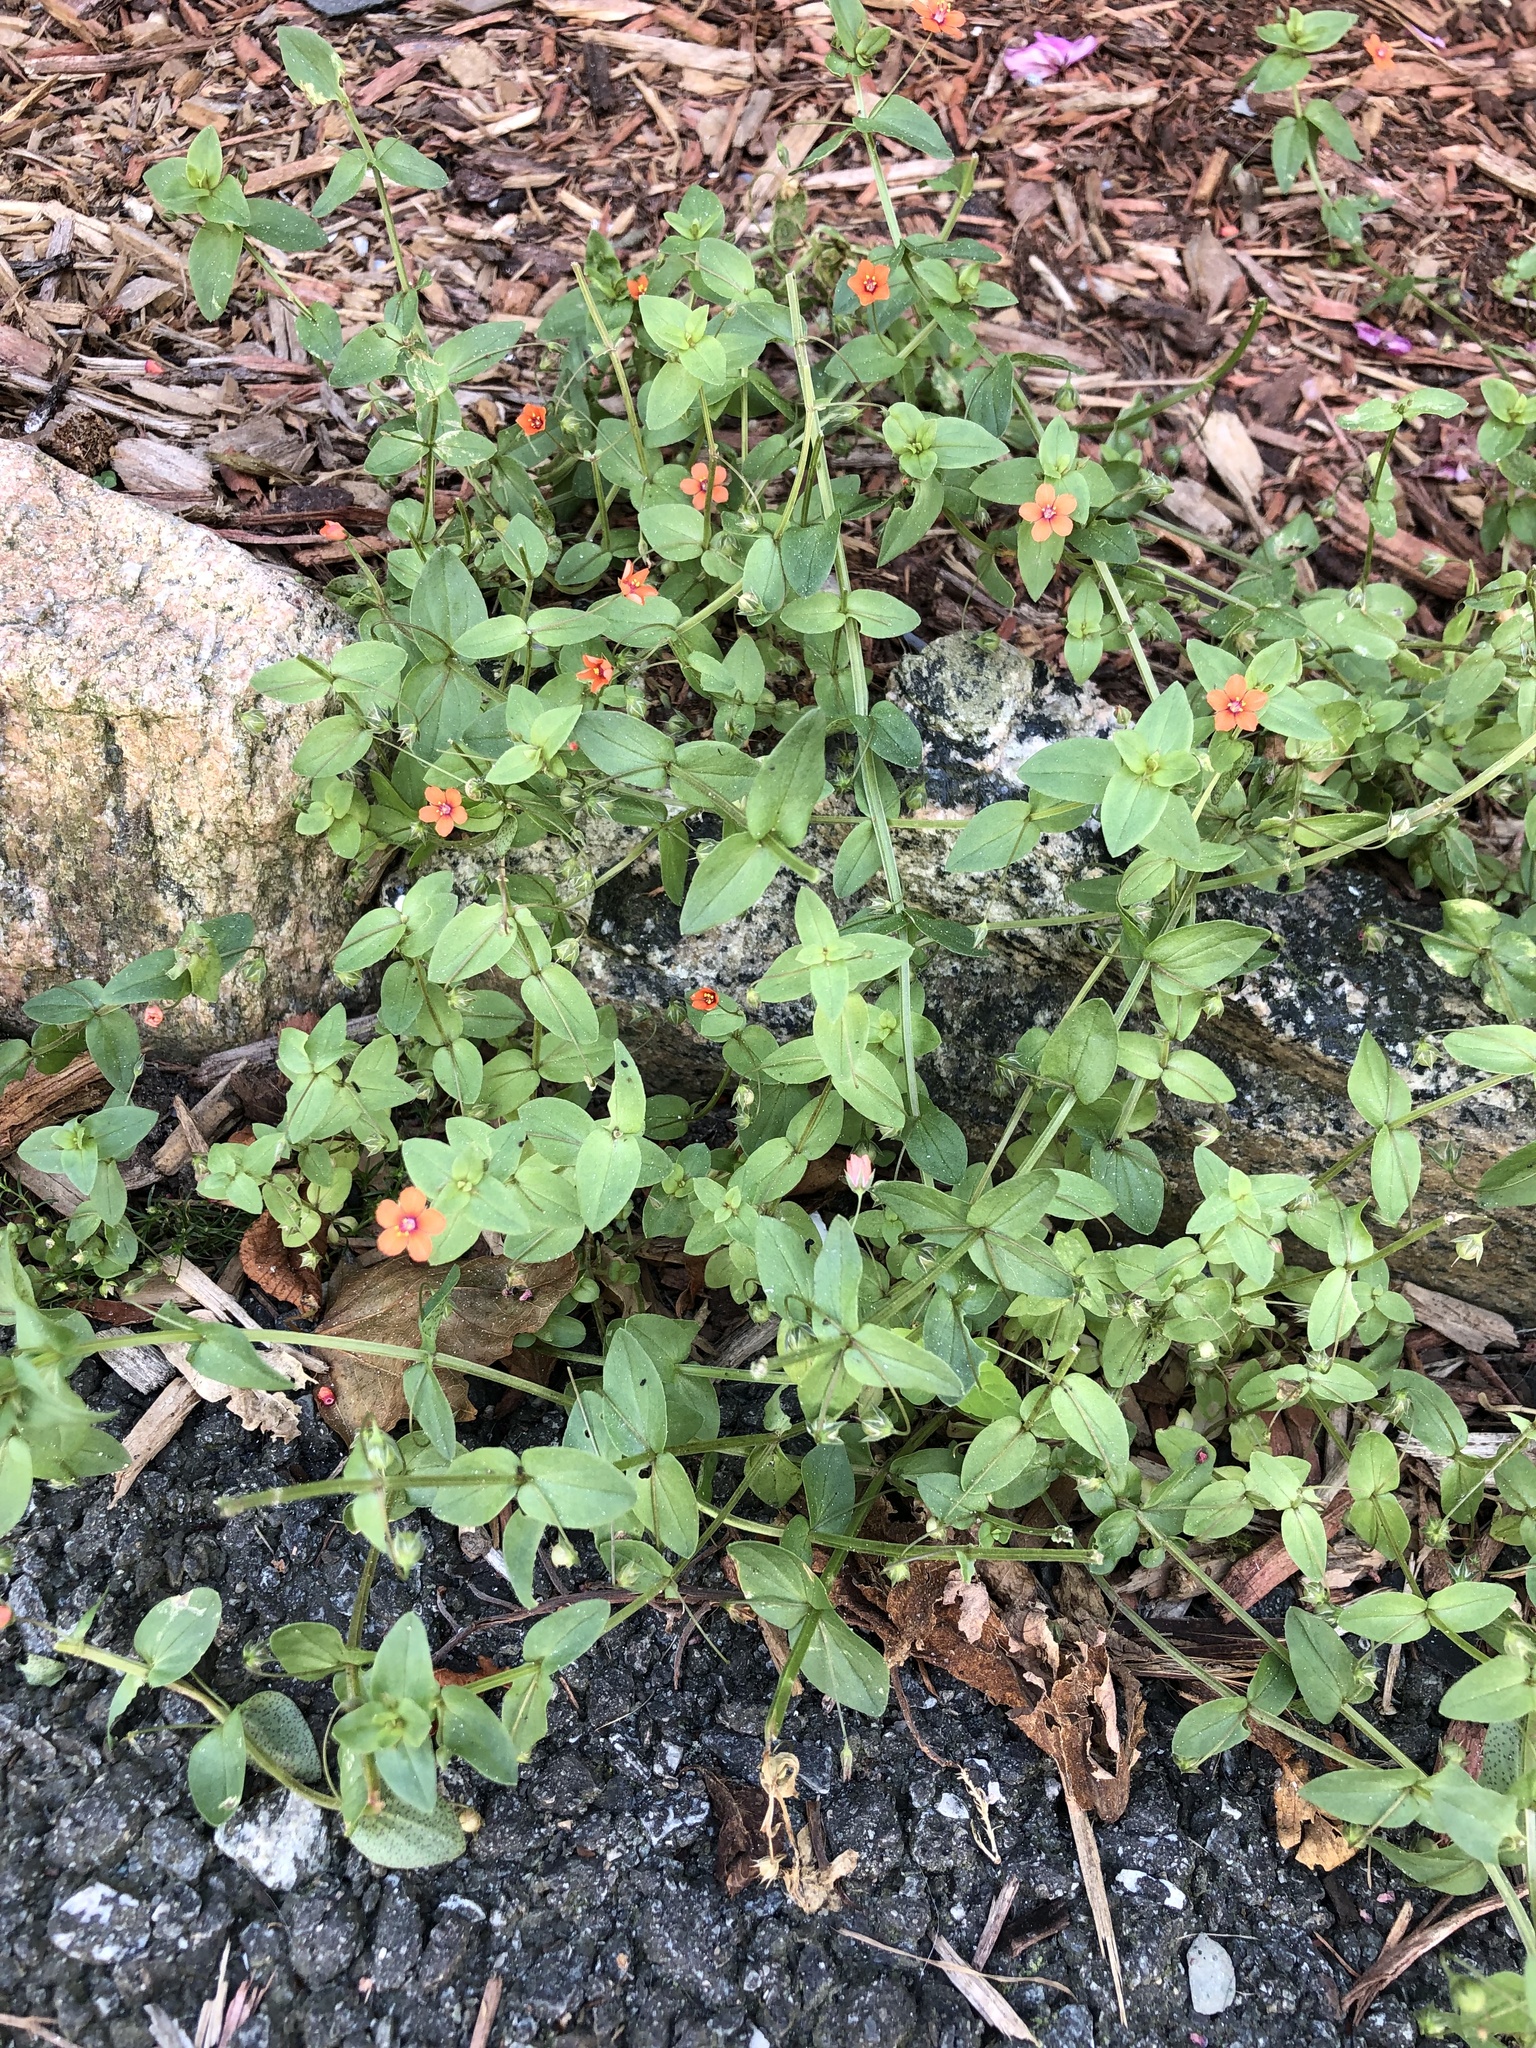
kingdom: Plantae
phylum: Tracheophyta
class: Magnoliopsida
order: Ericales
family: Primulaceae
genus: Lysimachia
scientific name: Lysimachia arvensis
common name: Scarlet pimpernel
